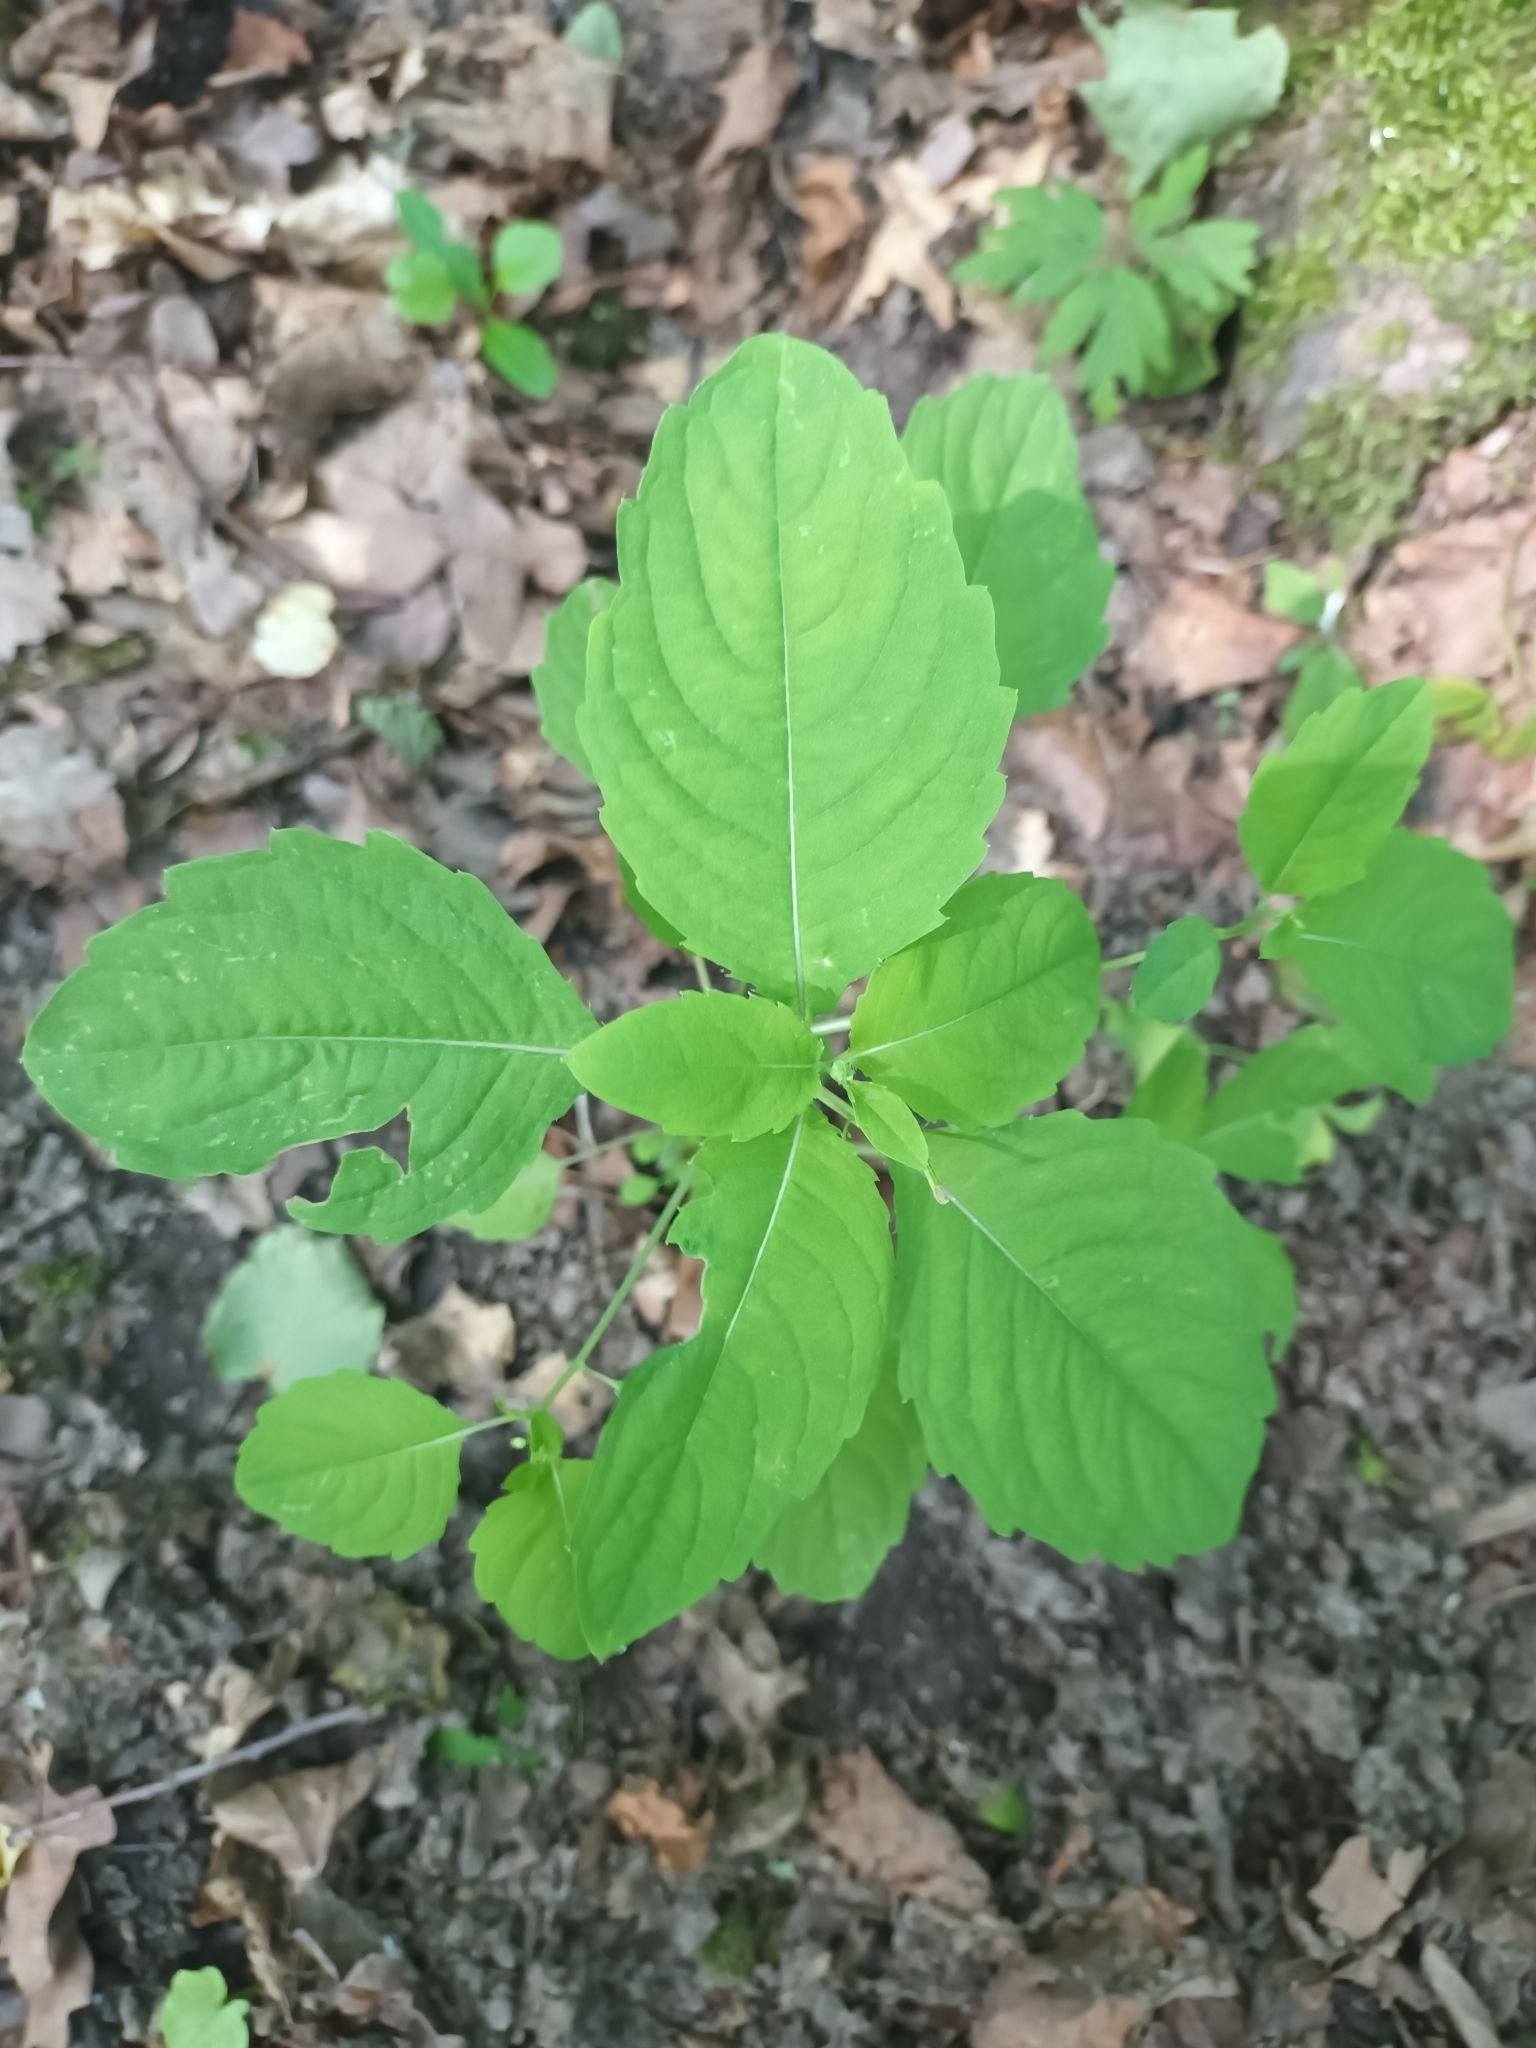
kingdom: Plantae
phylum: Tracheophyta
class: Magnoliopsida
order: Ericales
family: Balsaminaceae
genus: Impatiens
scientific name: Impatiens noli-tangere
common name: Touch-me-not balsam
